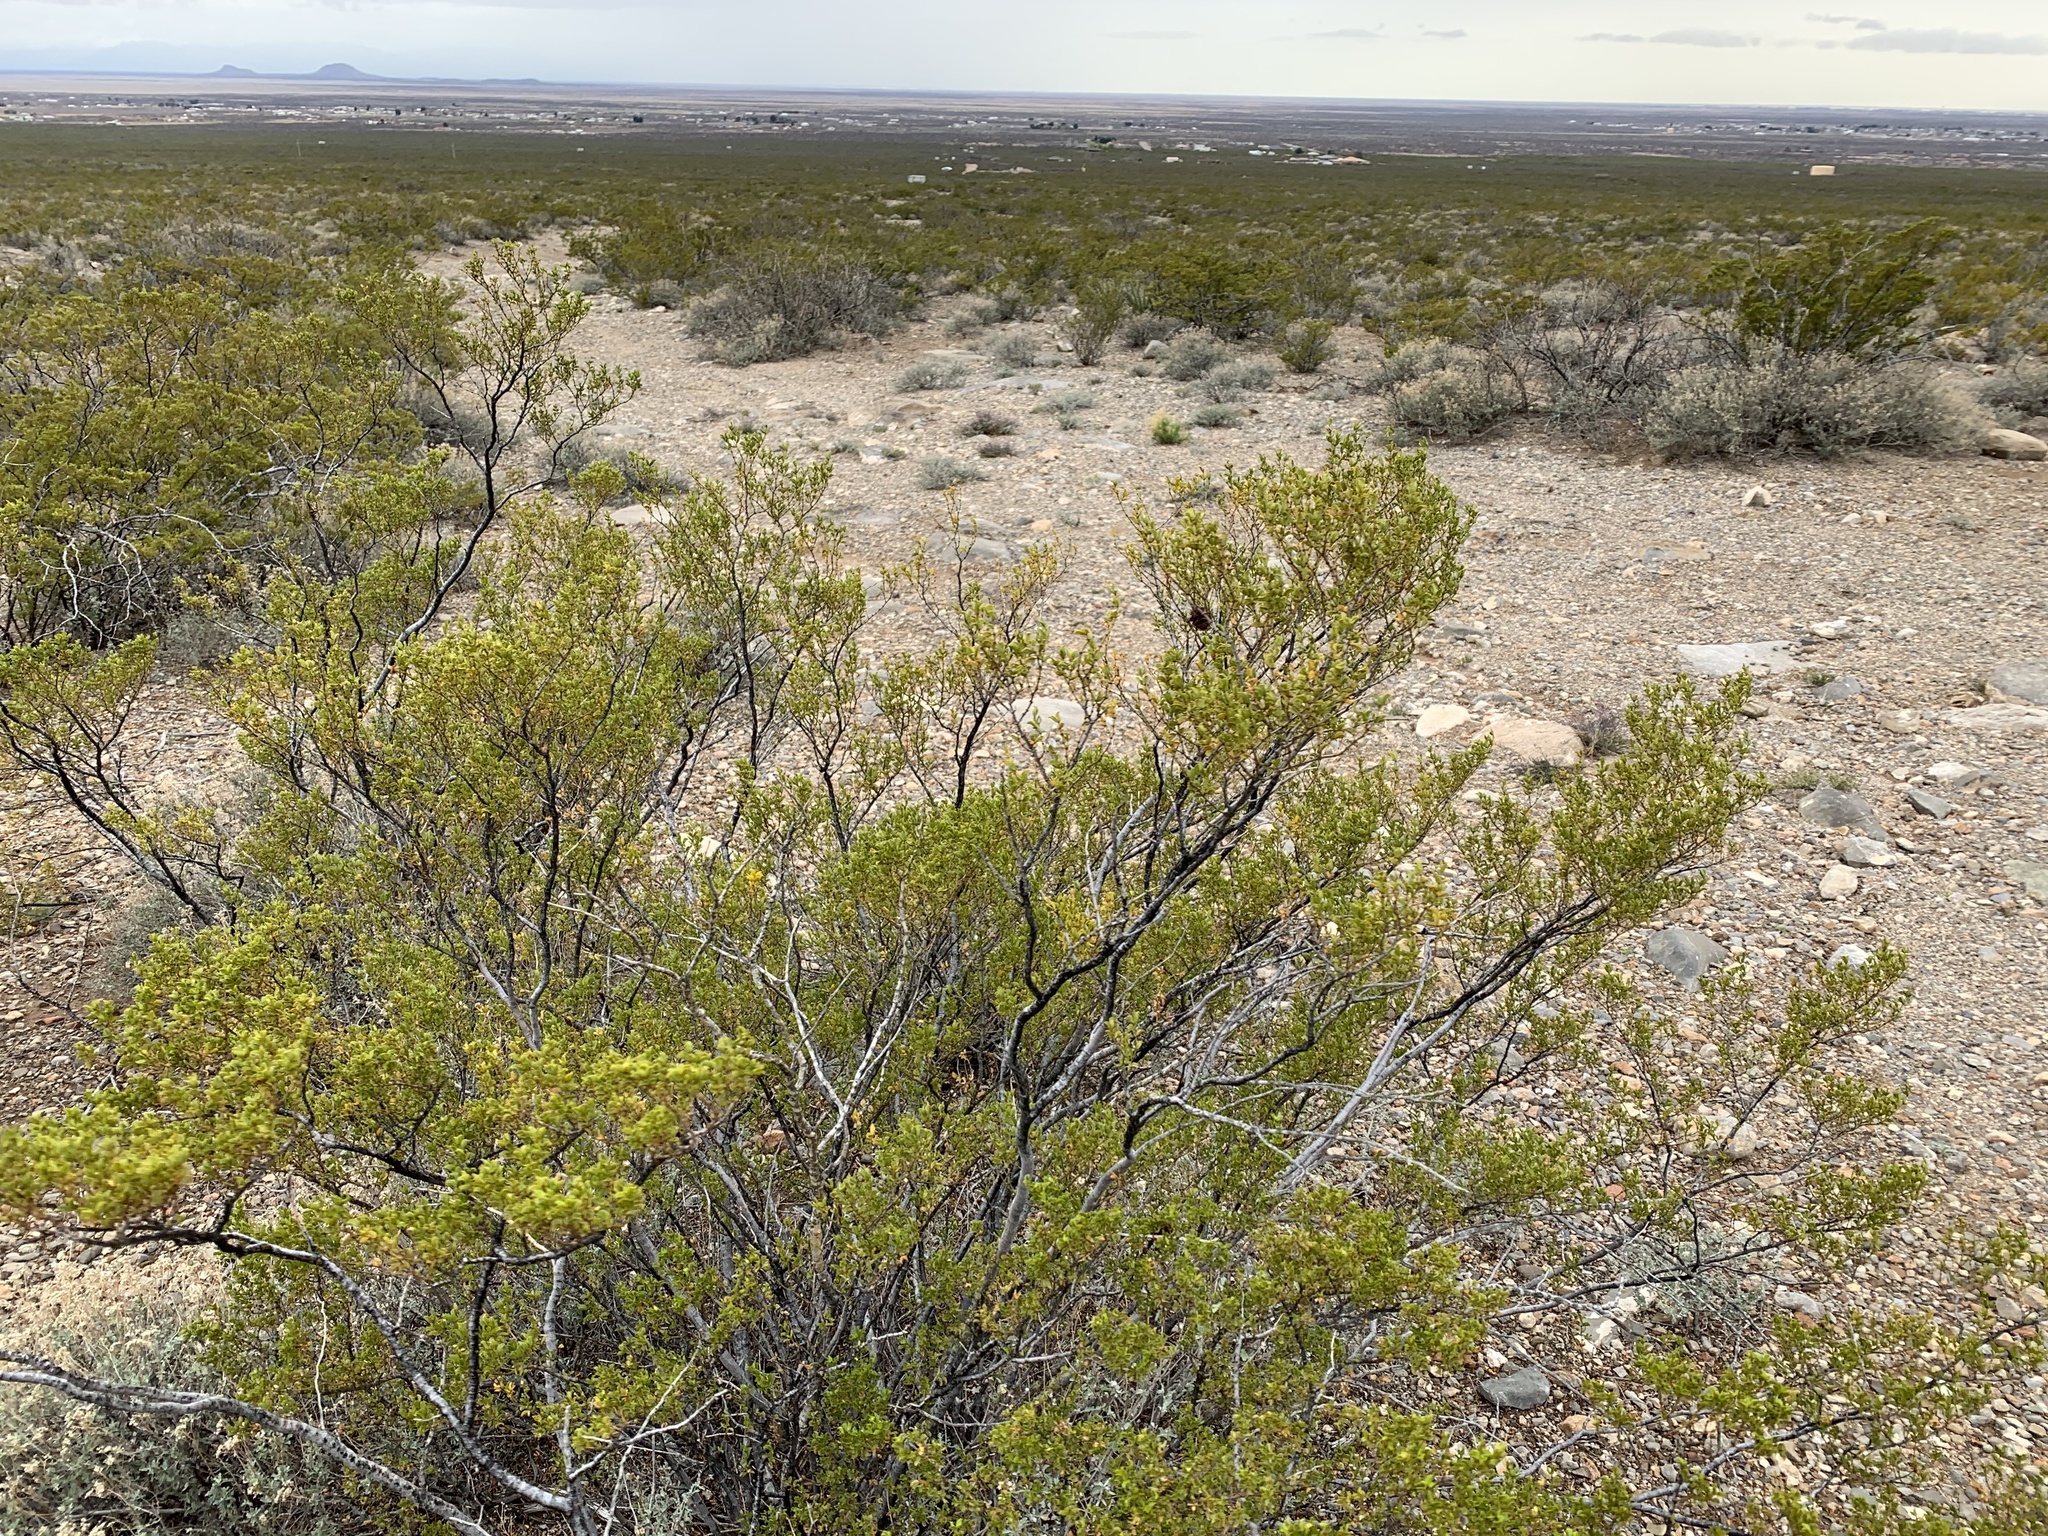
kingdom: Plantae
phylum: Tracheophyta
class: Magnoliopsida
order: Zygophyllales
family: Zygophyllaceae
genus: Larrea
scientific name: Larrea tridentata
